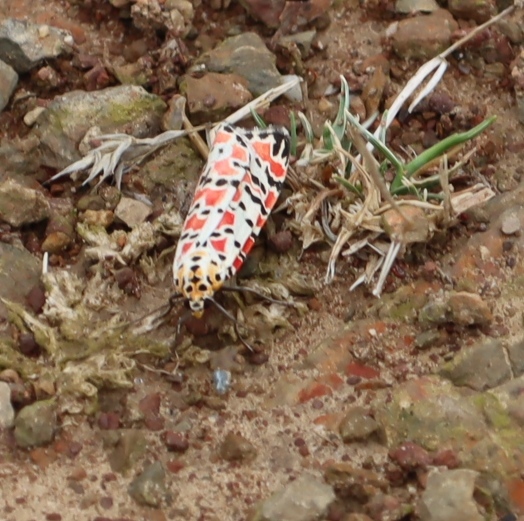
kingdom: Animalia
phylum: Arthropoda
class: Insecta
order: Lepidoptera
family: Erebidae
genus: Utetheisa
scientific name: Utetheisa pulchella
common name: Crimson speckled
